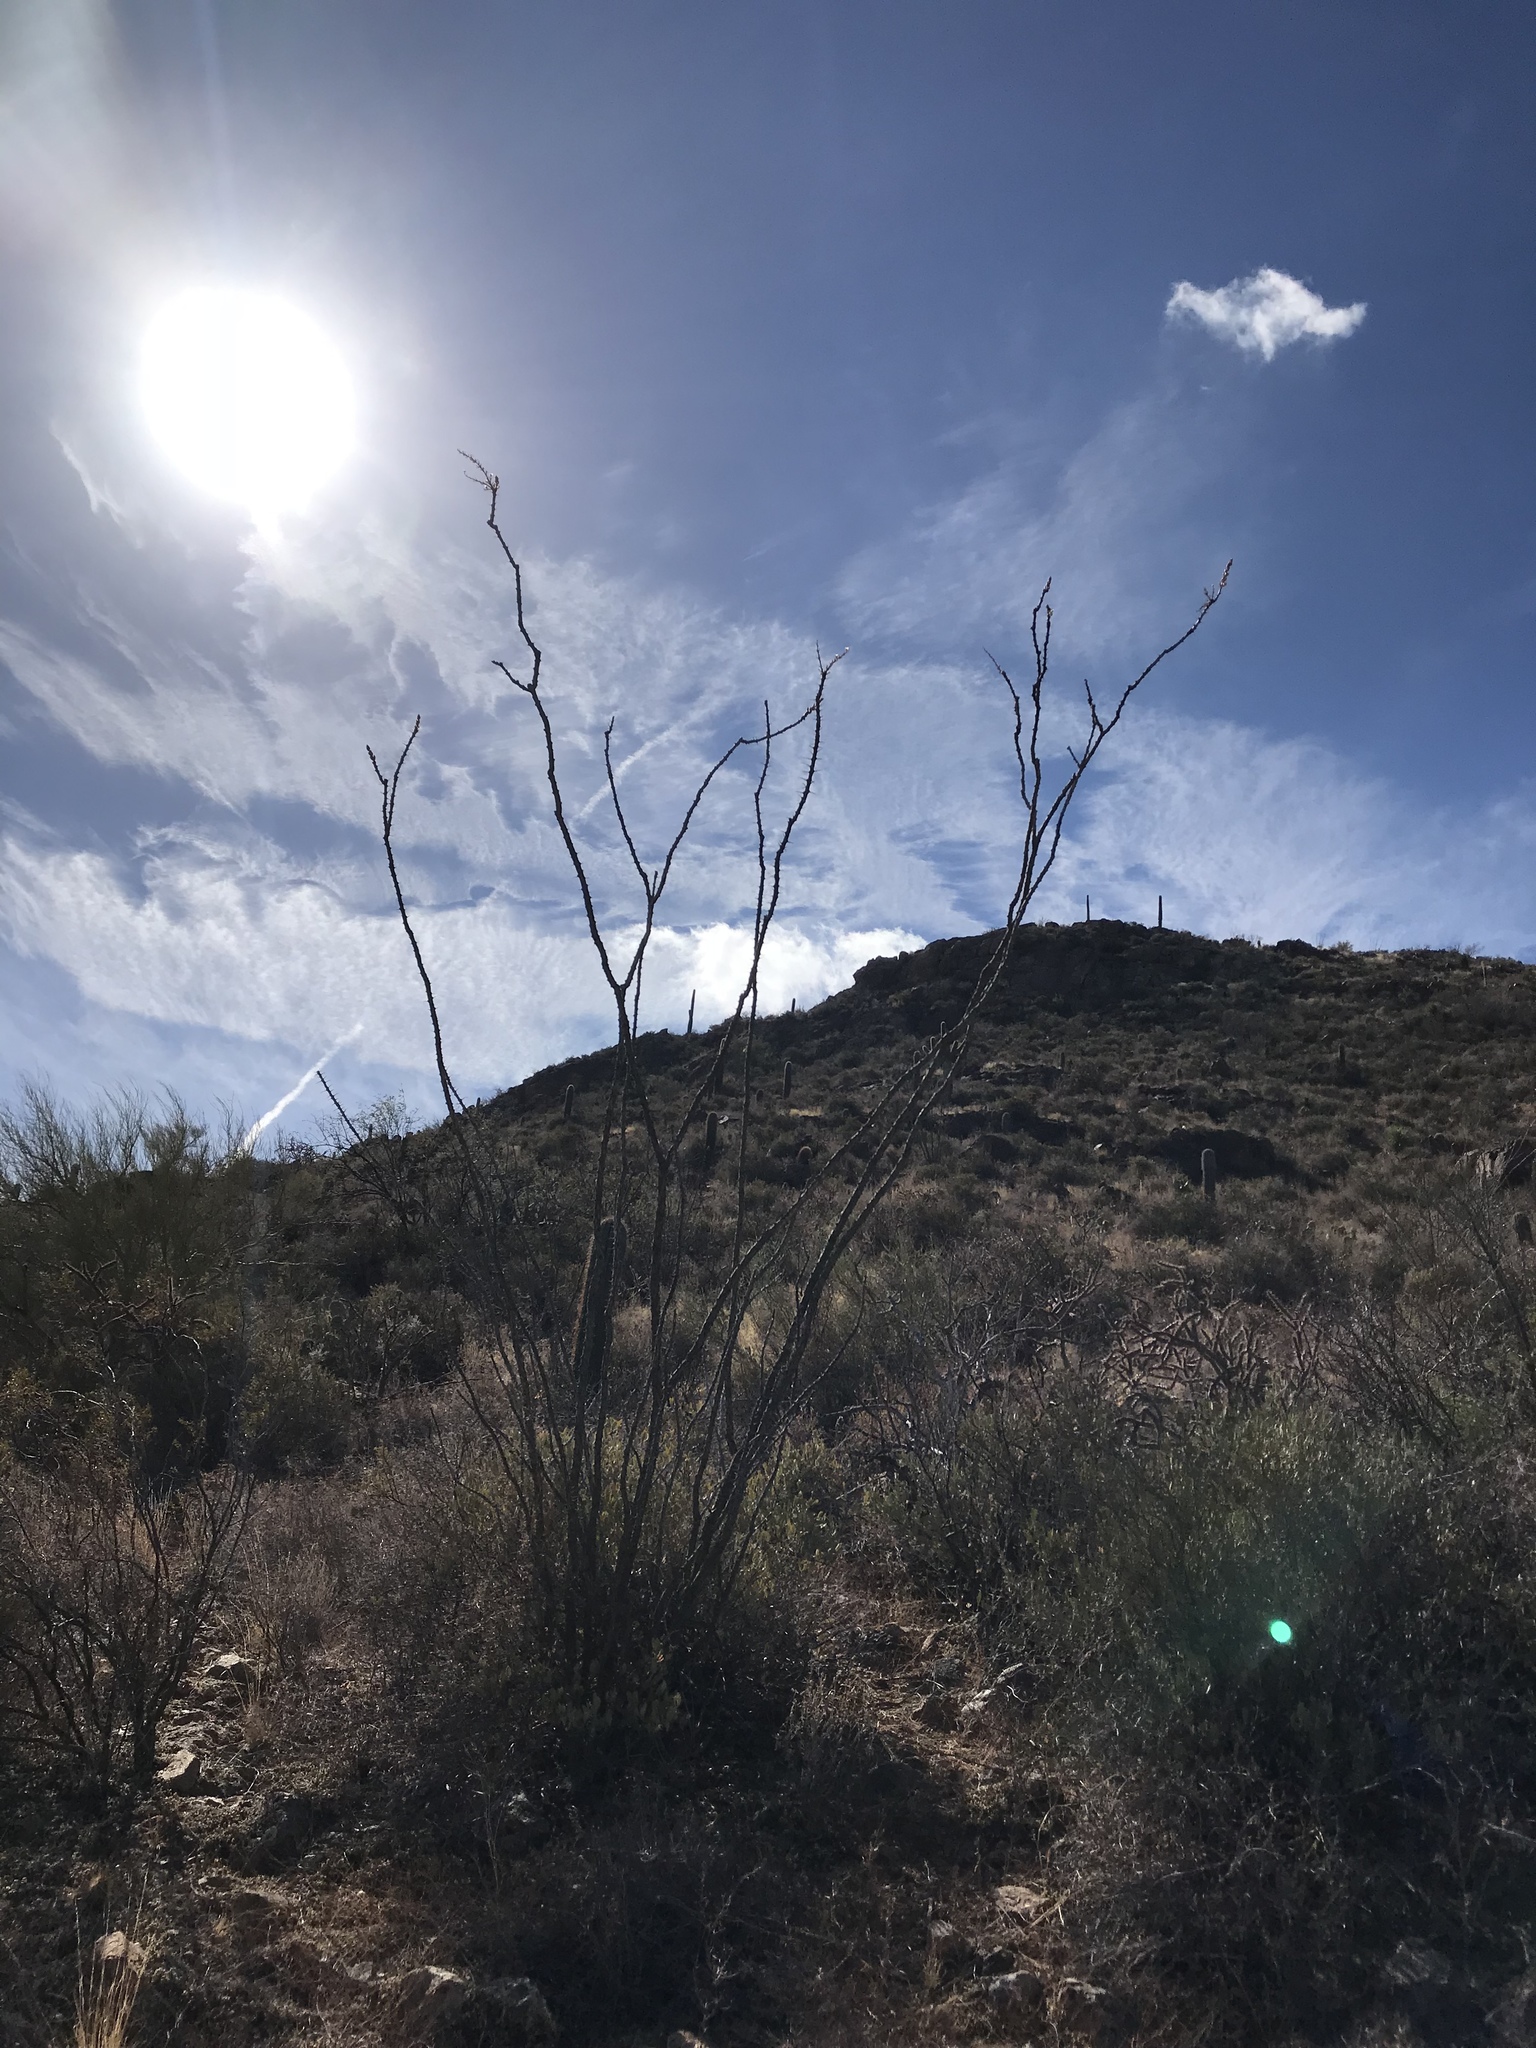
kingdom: Plantae
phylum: Tracheophyta
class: Magnoliopsida
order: Ericales
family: Fouquieriaceae
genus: Fouquieria
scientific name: Fouquieria splendens
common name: Vine-cactus
